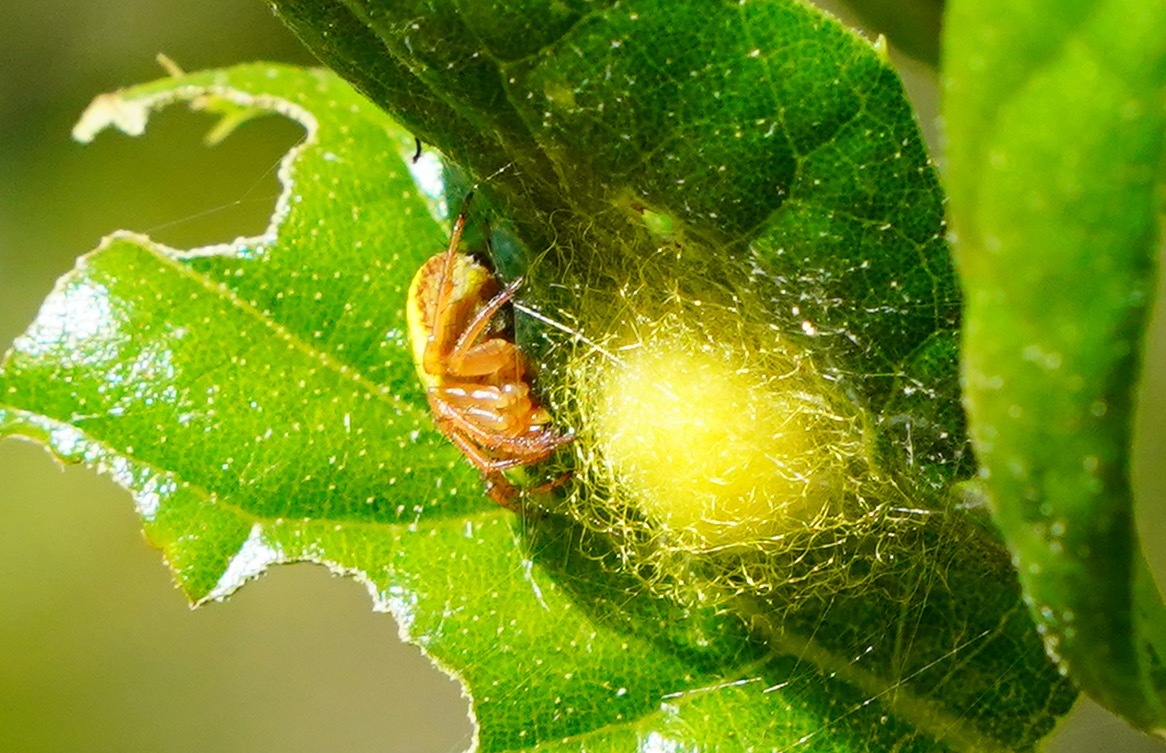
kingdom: Animalia
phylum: Arthropoda
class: Arachnida
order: Araneae
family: Araneidae
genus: Araniella
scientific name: Araniella displicata
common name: Sixspotted orb weaver
